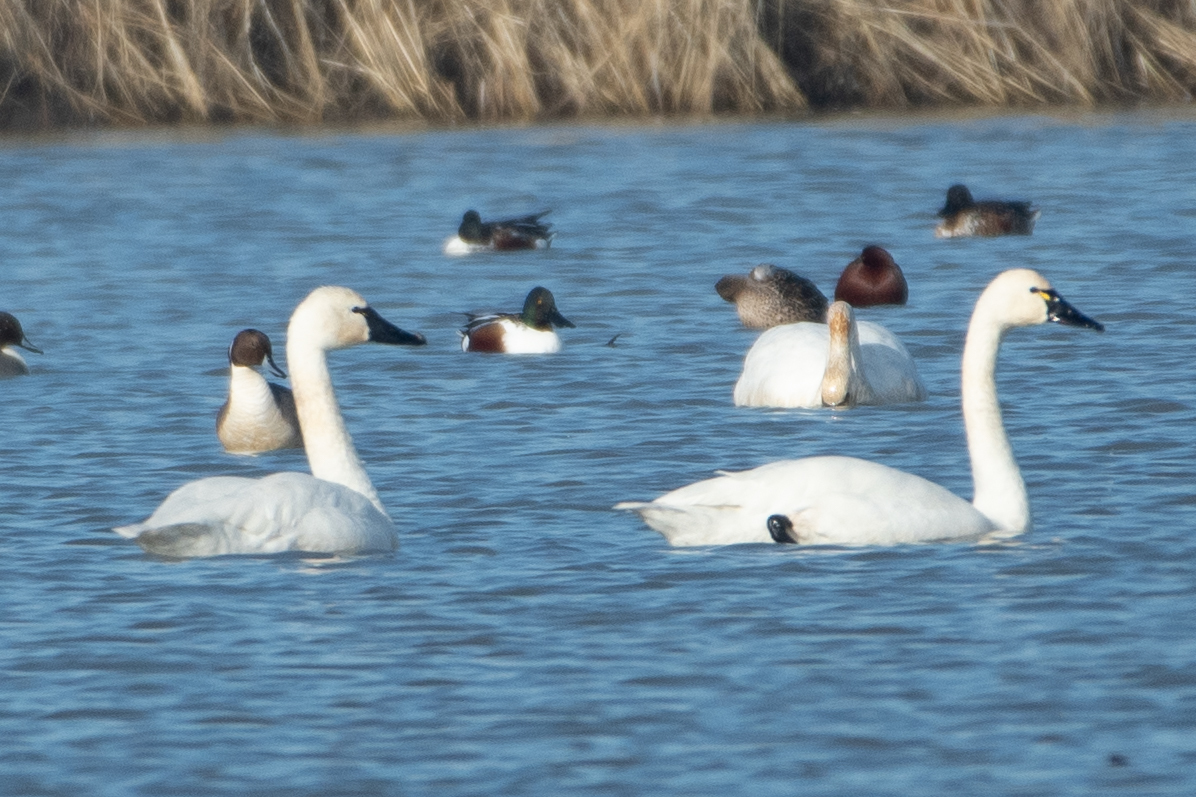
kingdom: Animalia
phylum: Chordata
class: Aves
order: Anseriformes
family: Anatidae
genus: Cygnus
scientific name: Cygnus columbianus
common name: Tundra swan
